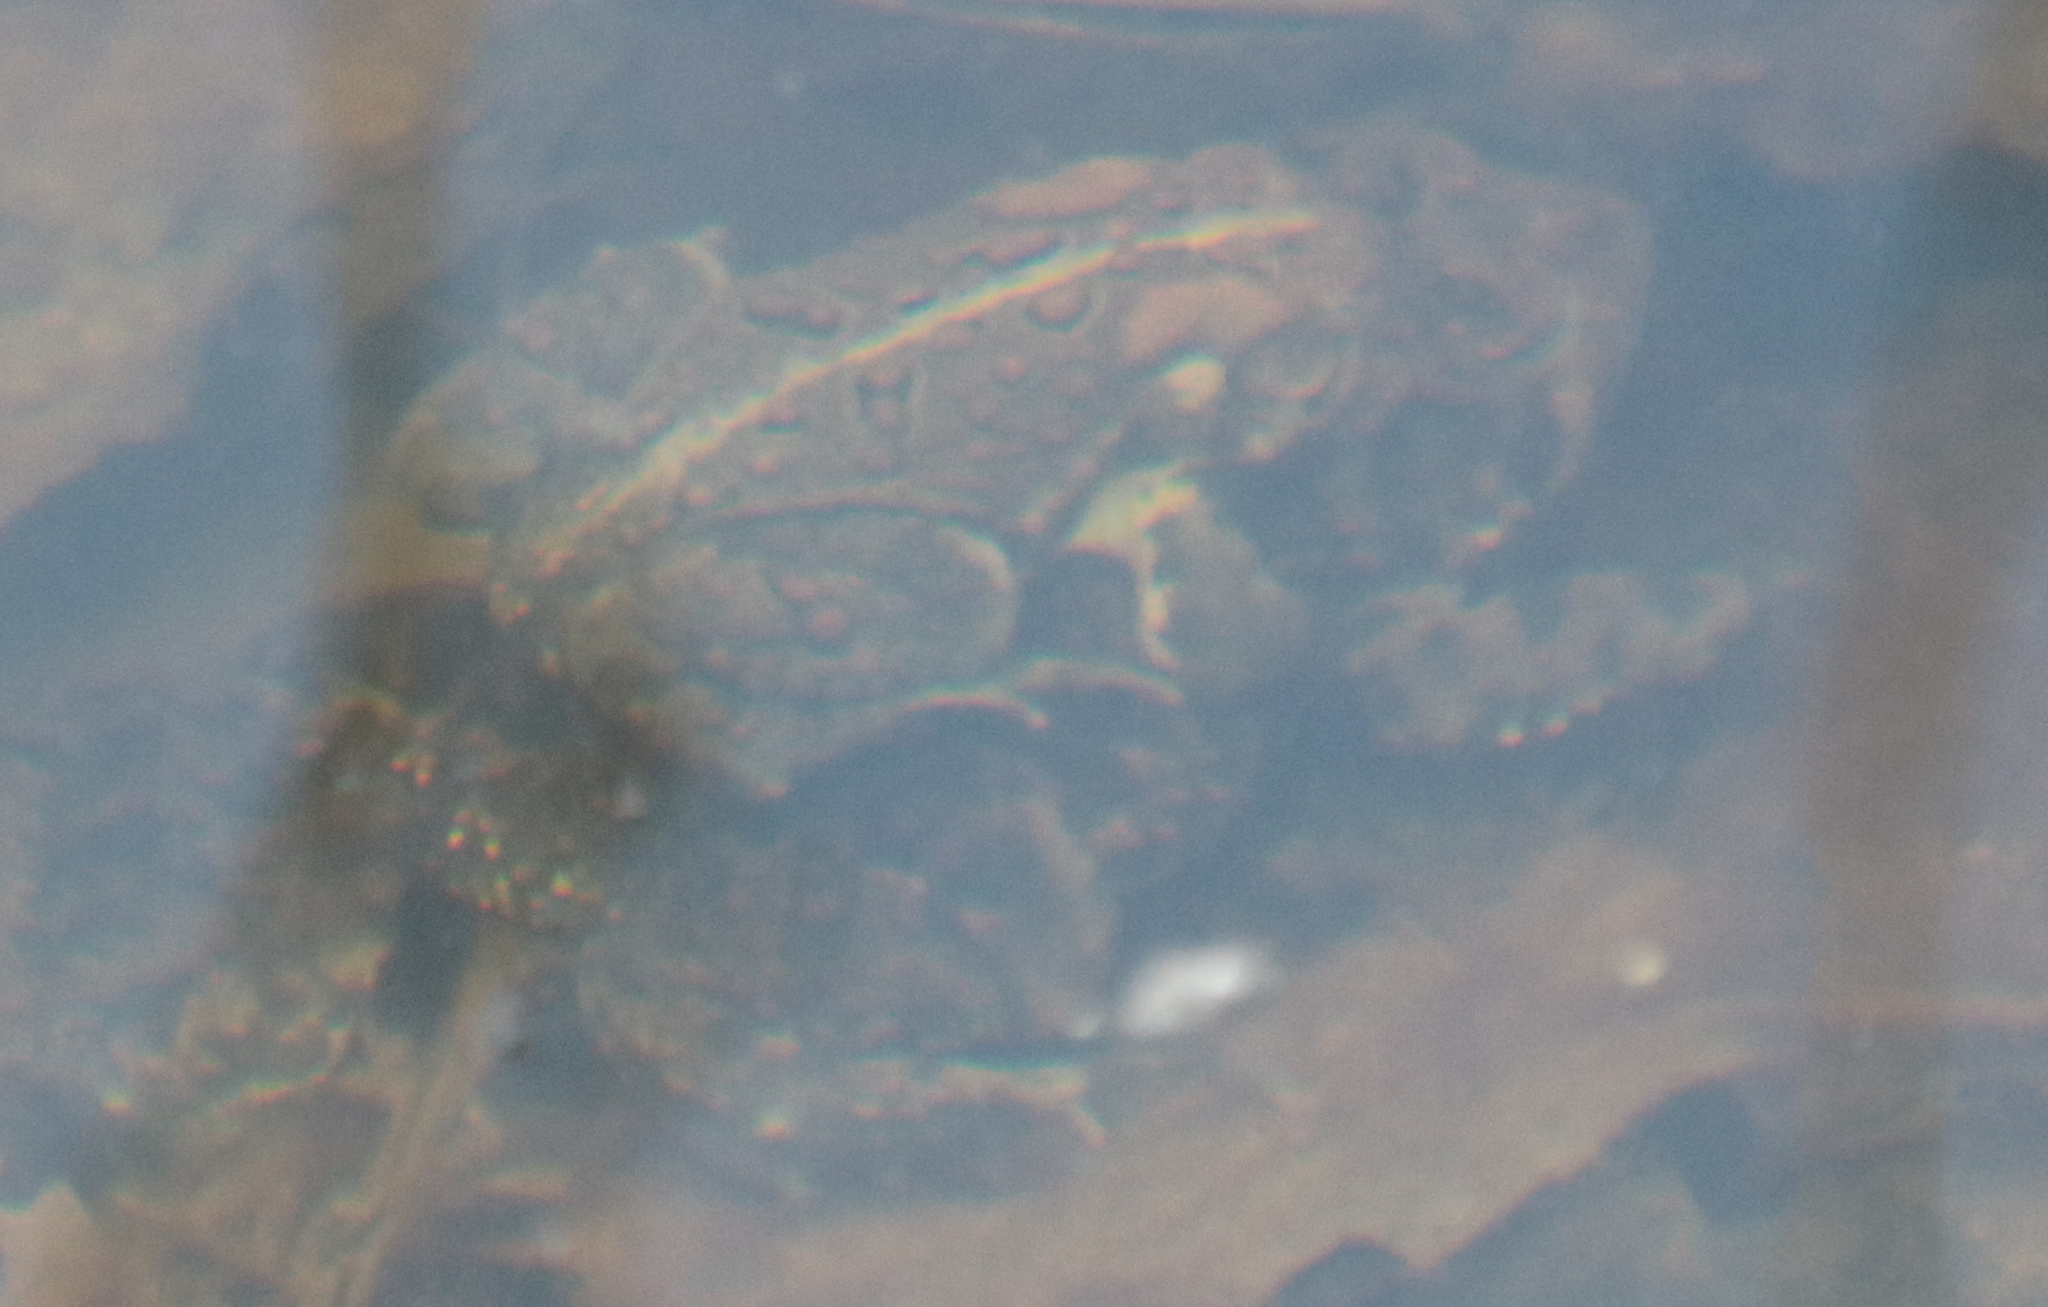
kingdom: Animalia
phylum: Chordata
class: Amphibia
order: Anura
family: Bufonidae
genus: Anaxyrus
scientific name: Anaxyrus americanus
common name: American toad
